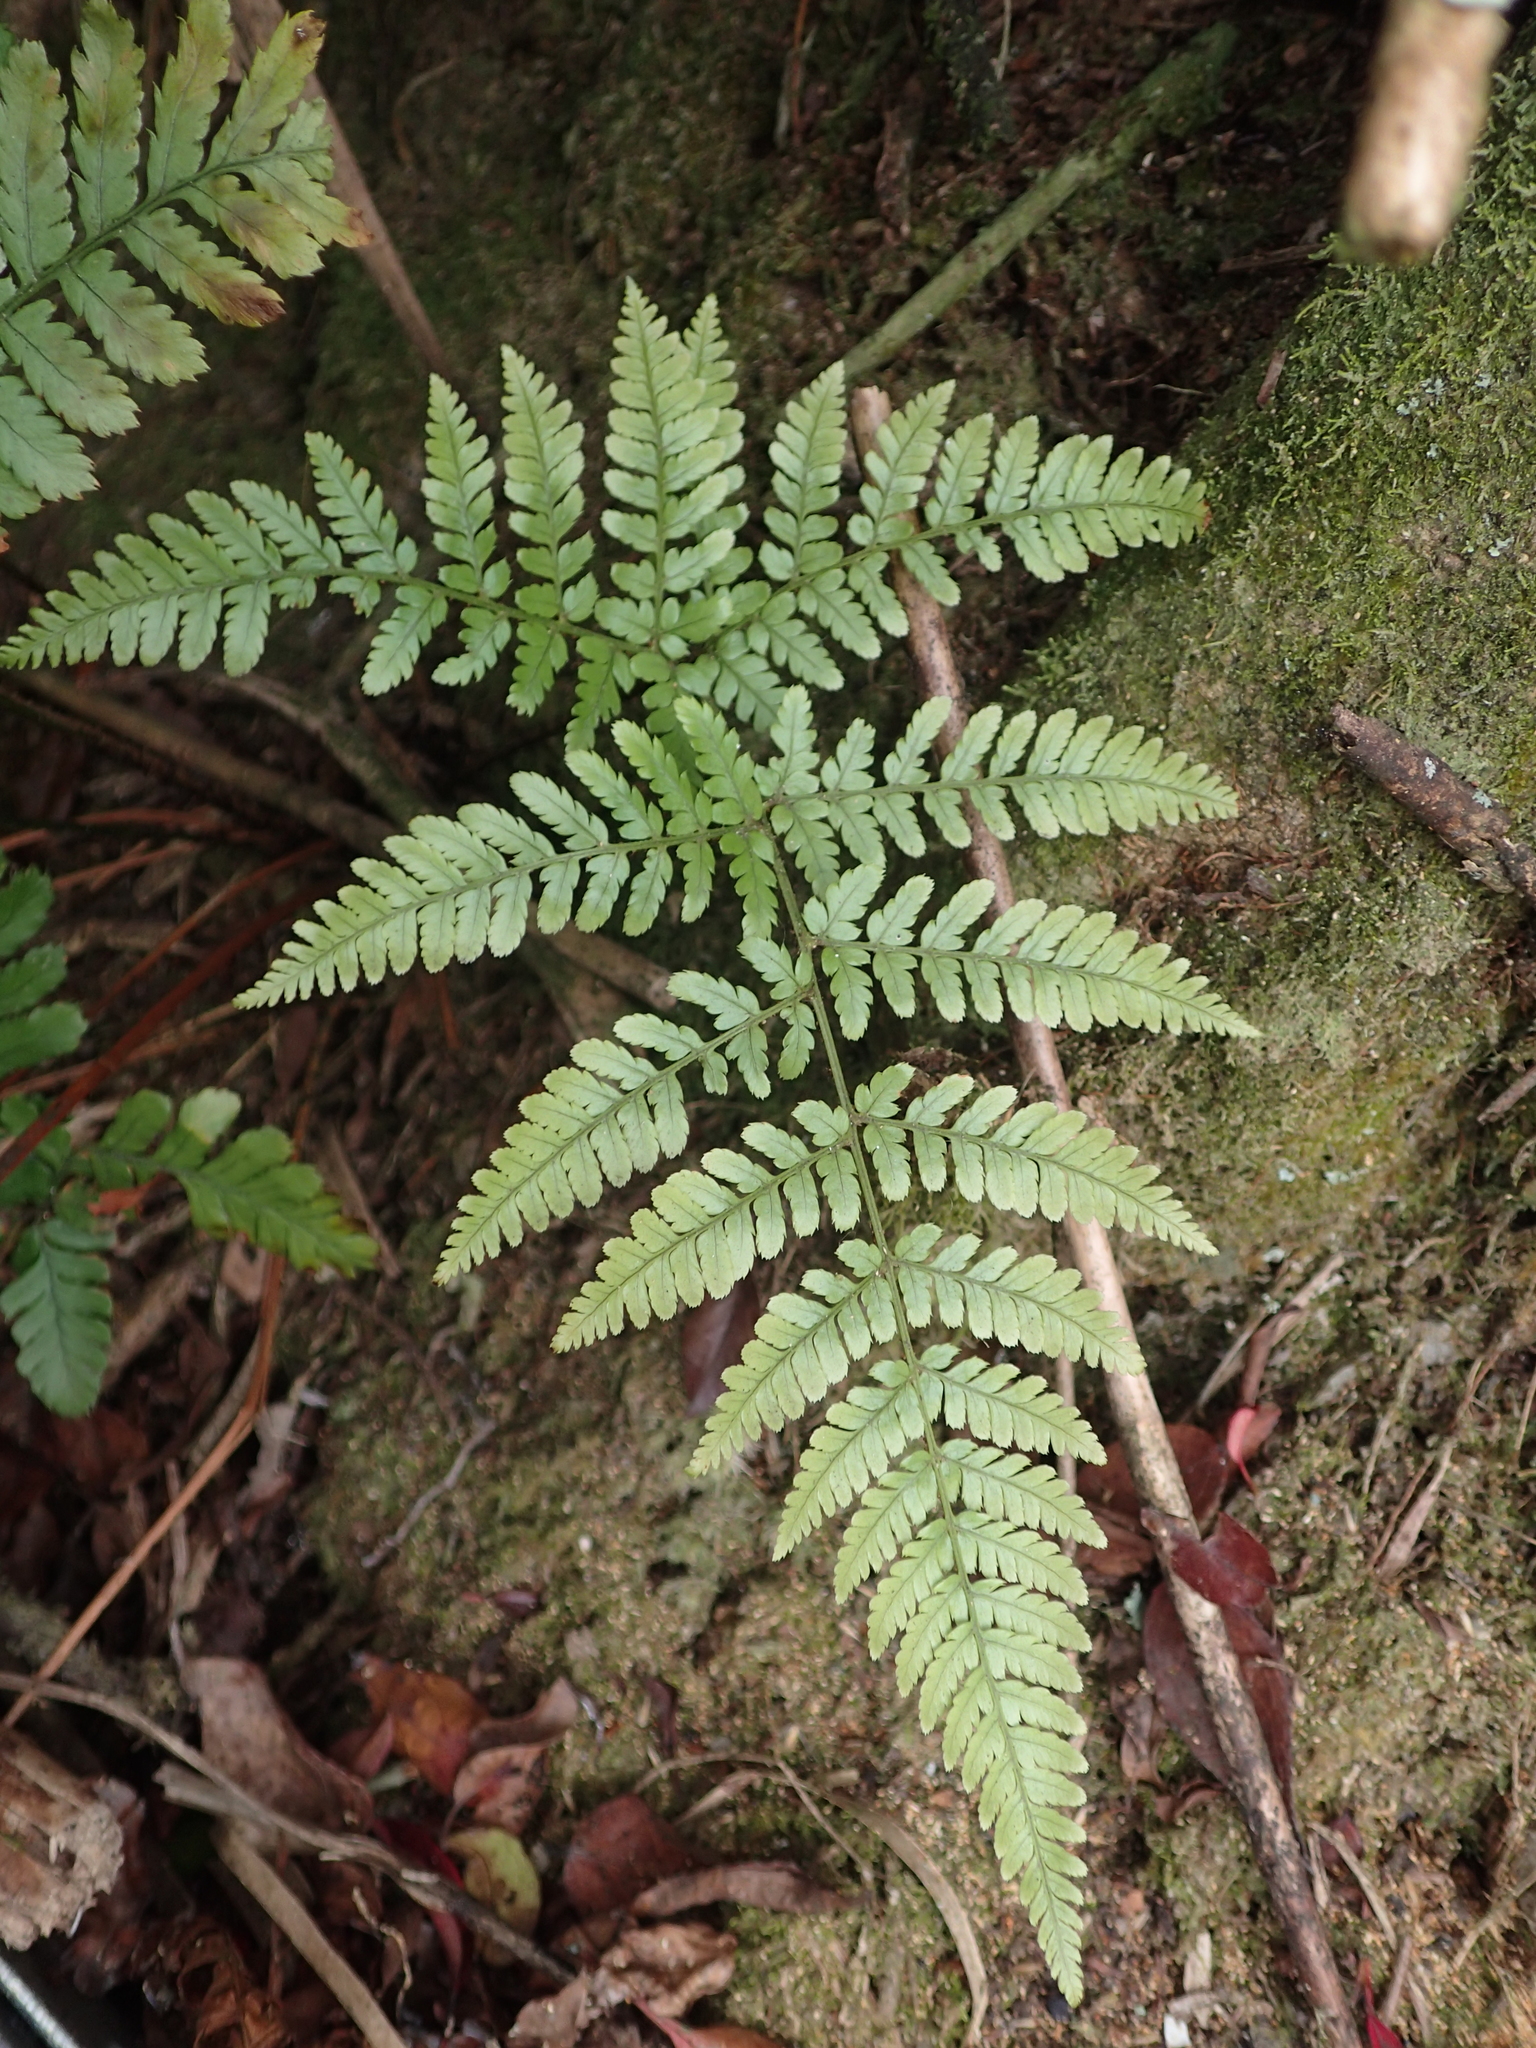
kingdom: Plantae
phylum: Tracheophyta
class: Polypodiopsida
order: Polypodiales
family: Dryopteridaceae
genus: Dryopteris
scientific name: Dryopteris formosana
